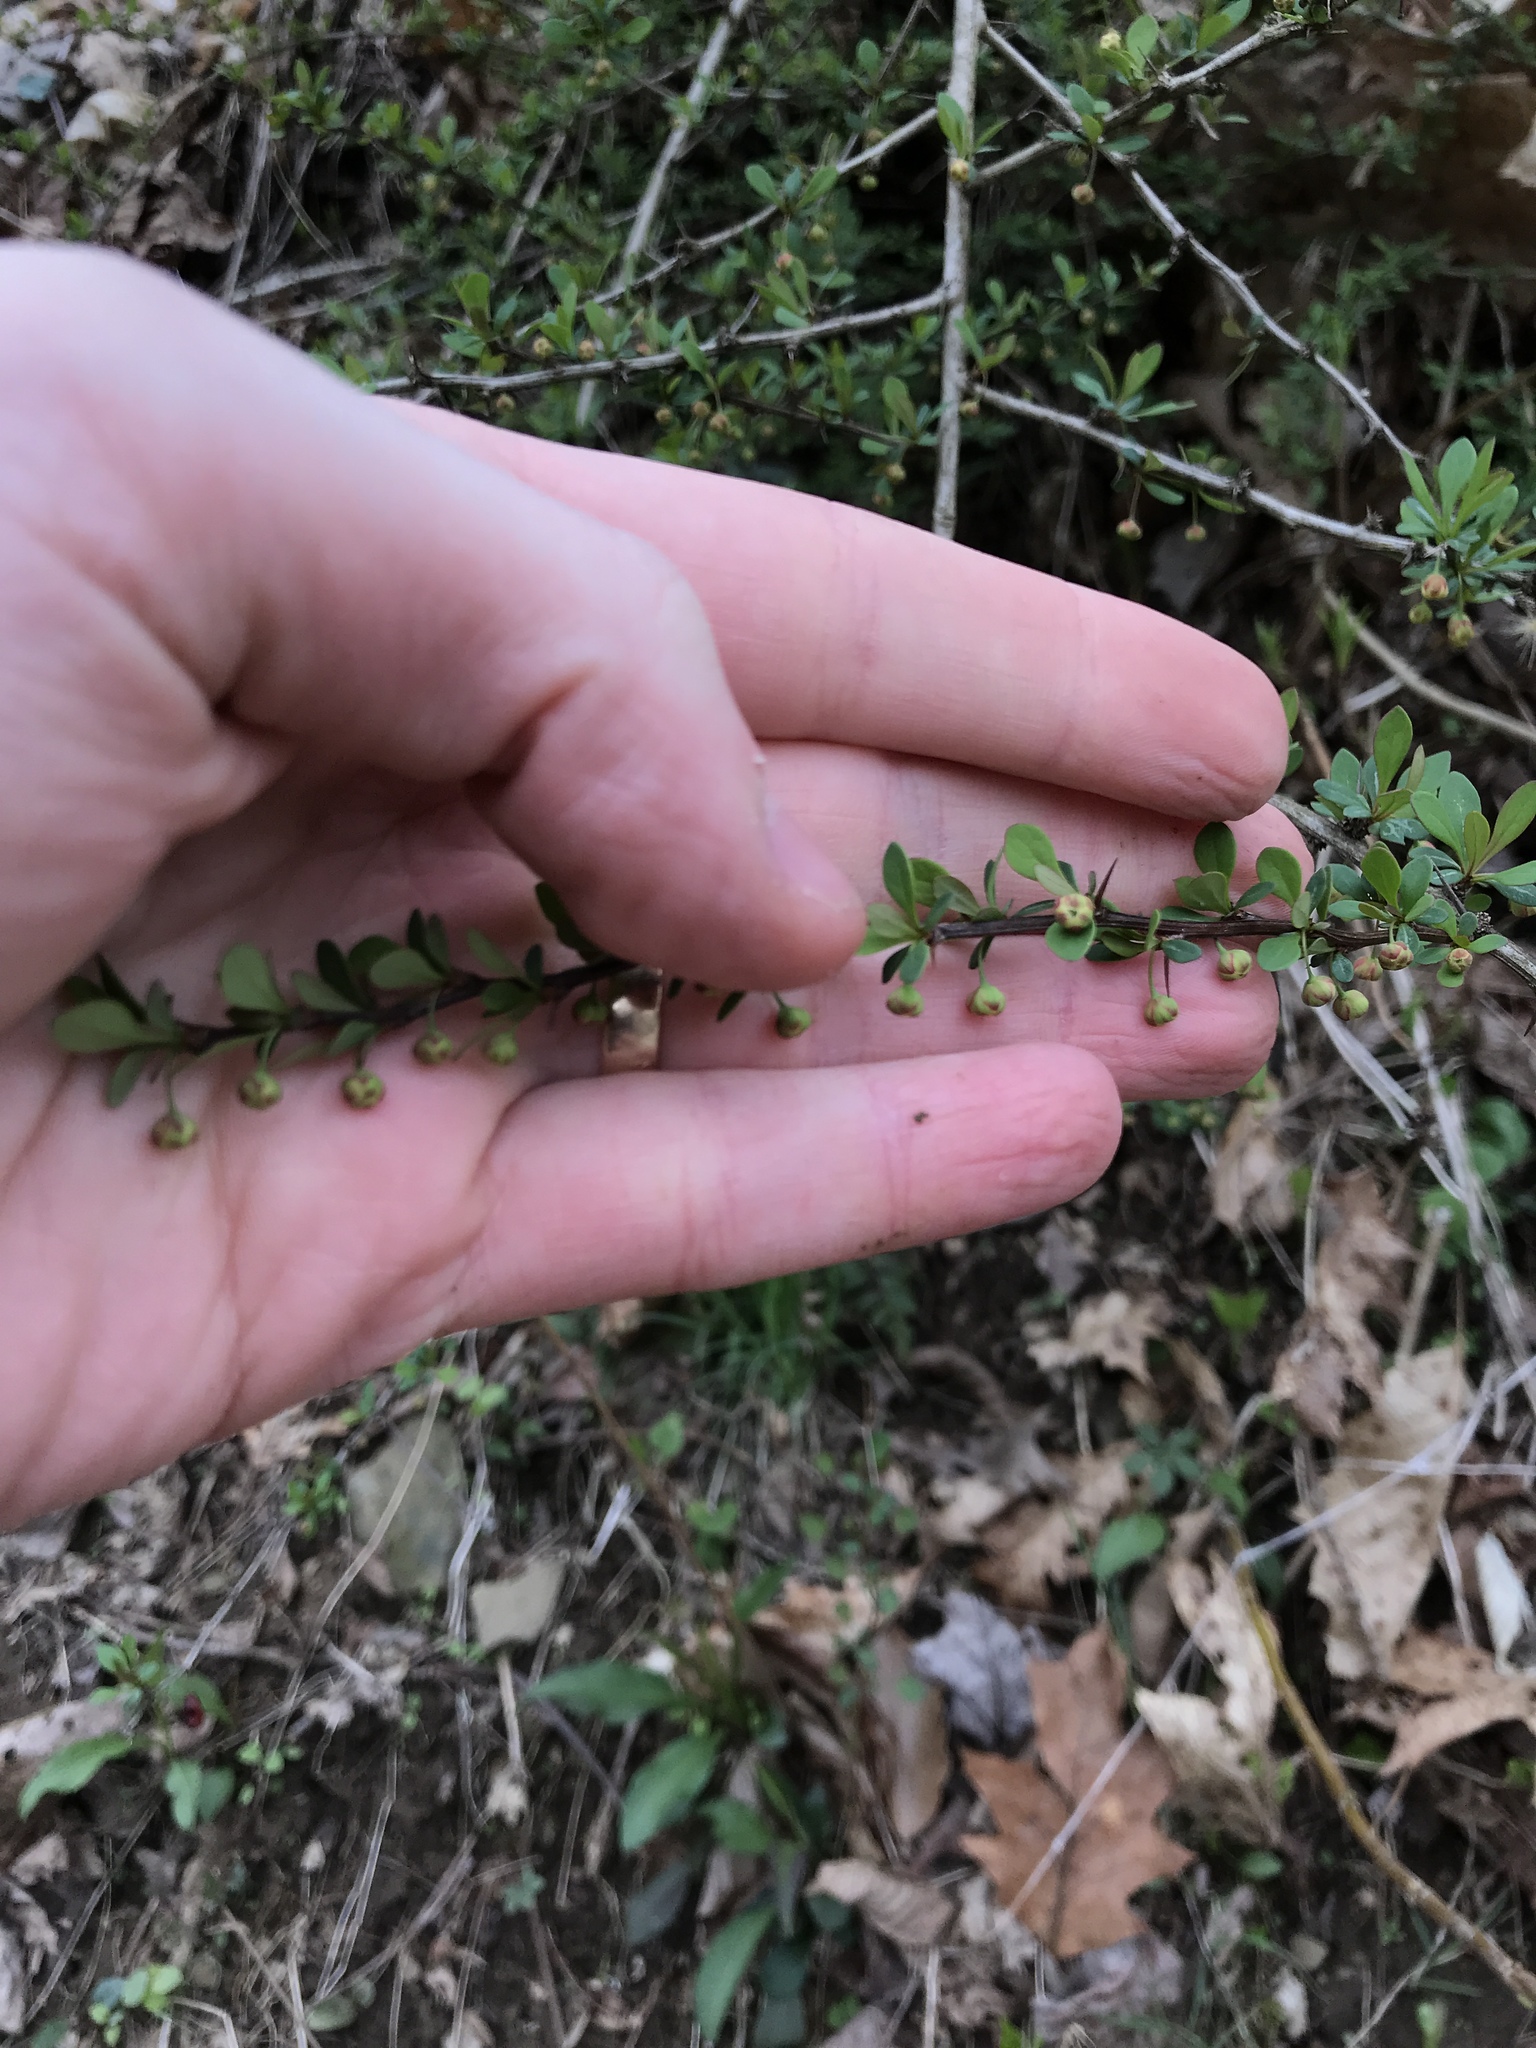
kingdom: Plantae
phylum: Tracheophyta
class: Magnoliopsida
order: Ranunculales
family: Berberidaceae
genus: Berberis
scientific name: Berberis thunbergii
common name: Japanese barberry
